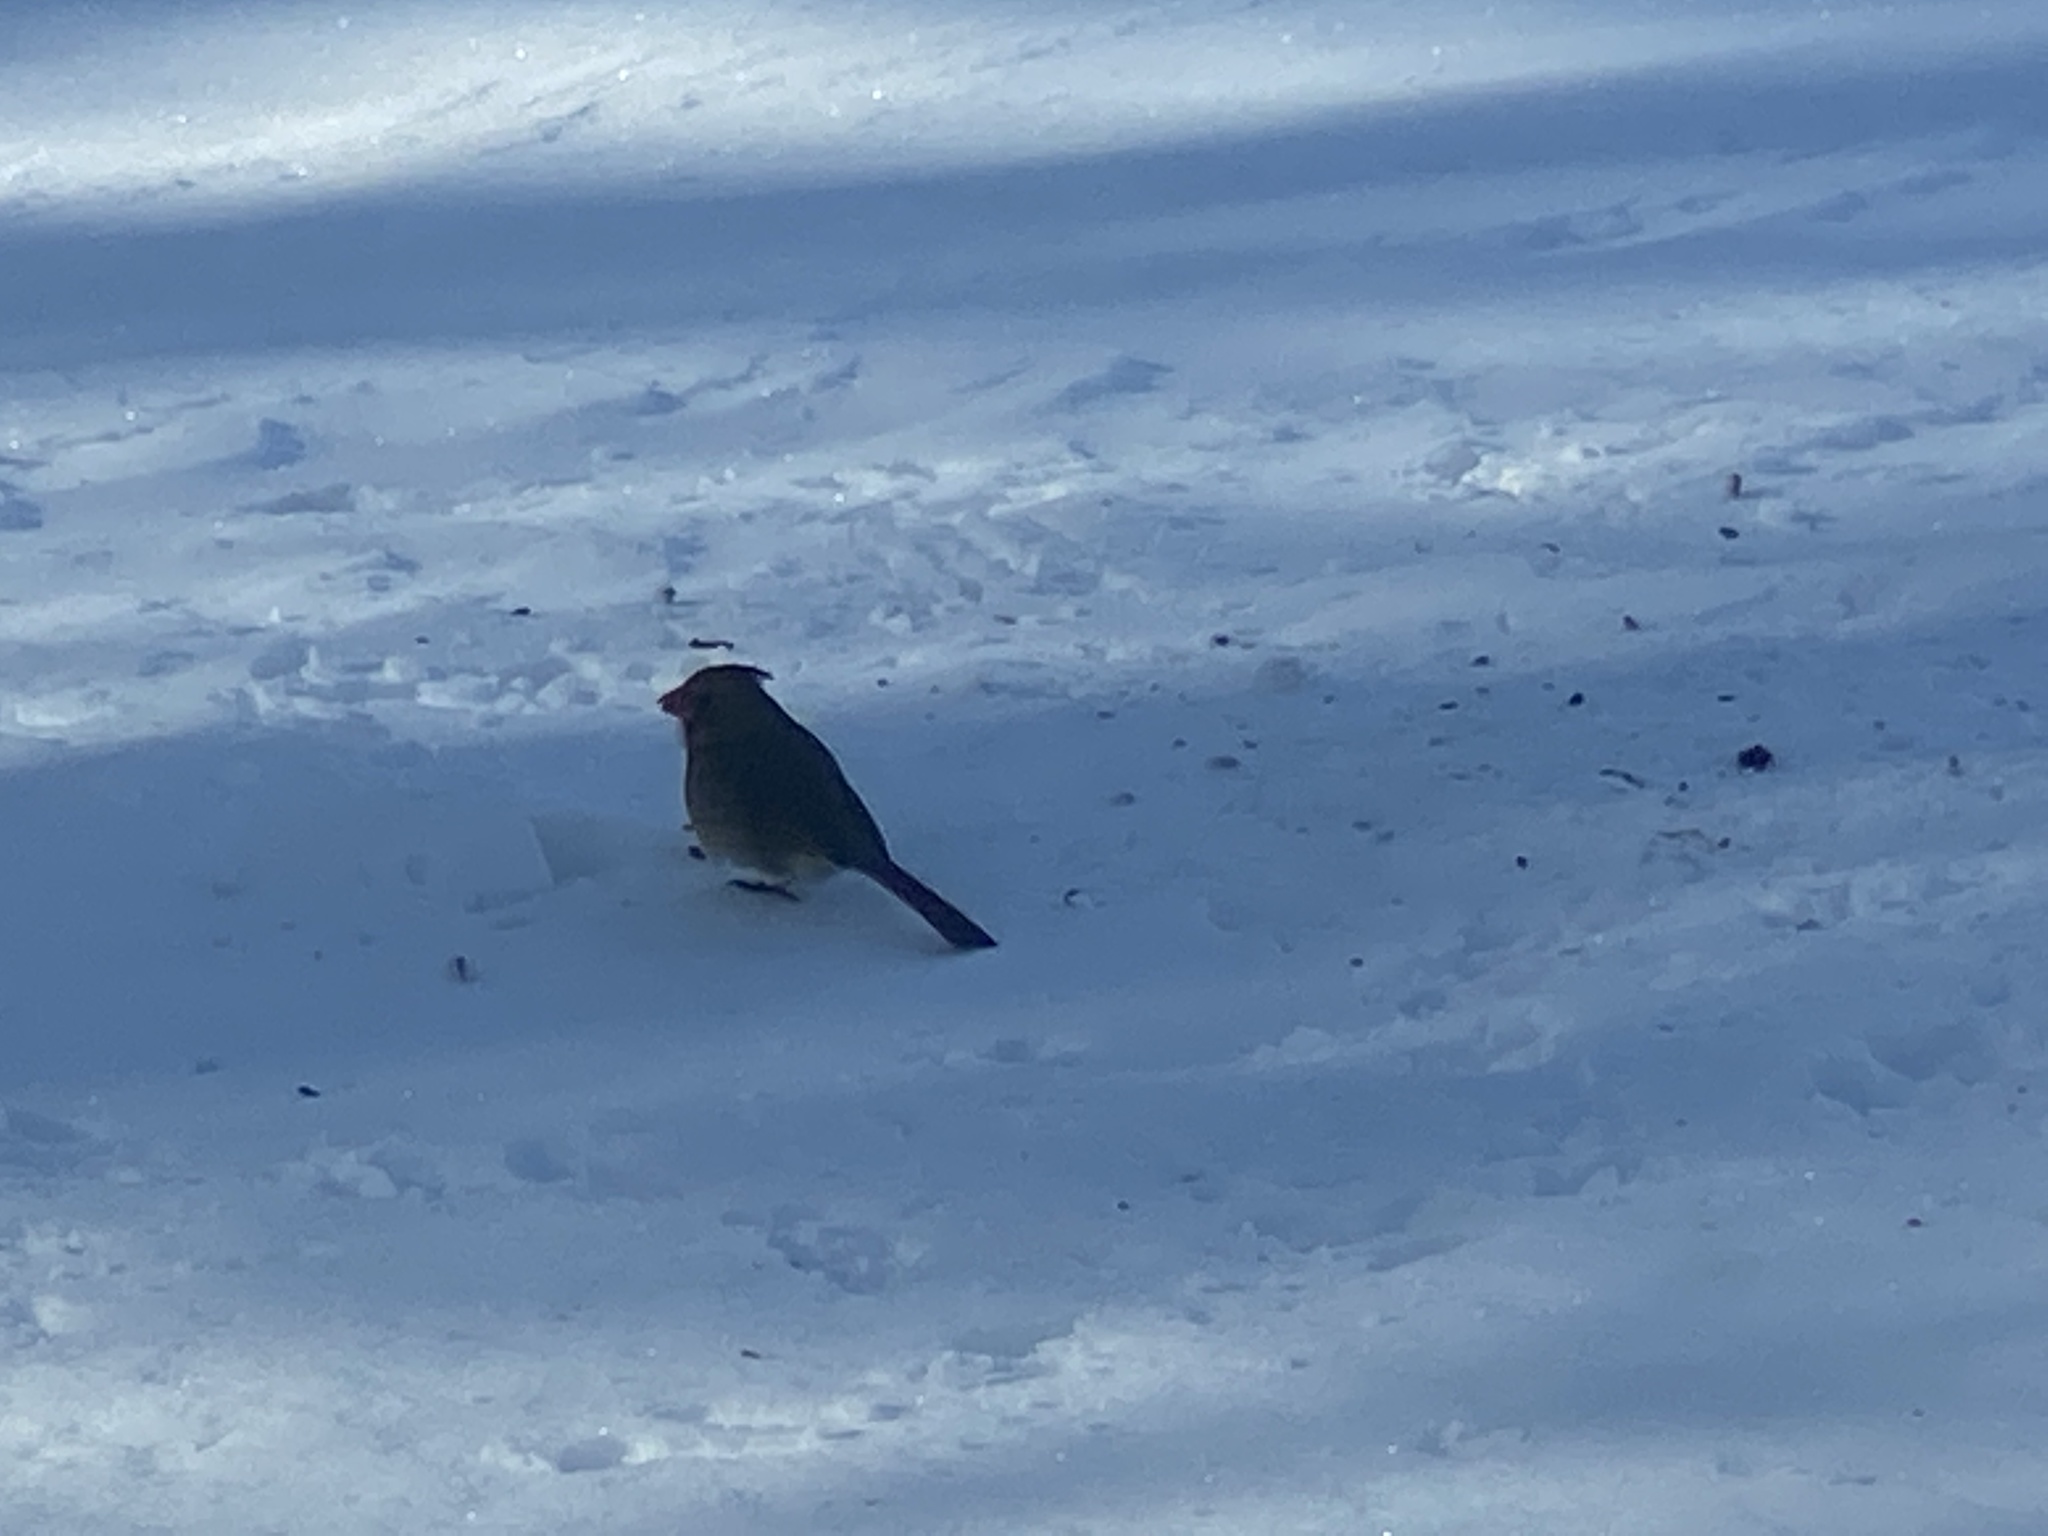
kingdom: Animalia
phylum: Chordata
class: Aves
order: Passeriformes
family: Cardinalidae
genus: Cardinalis
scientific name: Cardinalis cardinalis
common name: Northern cardinal
